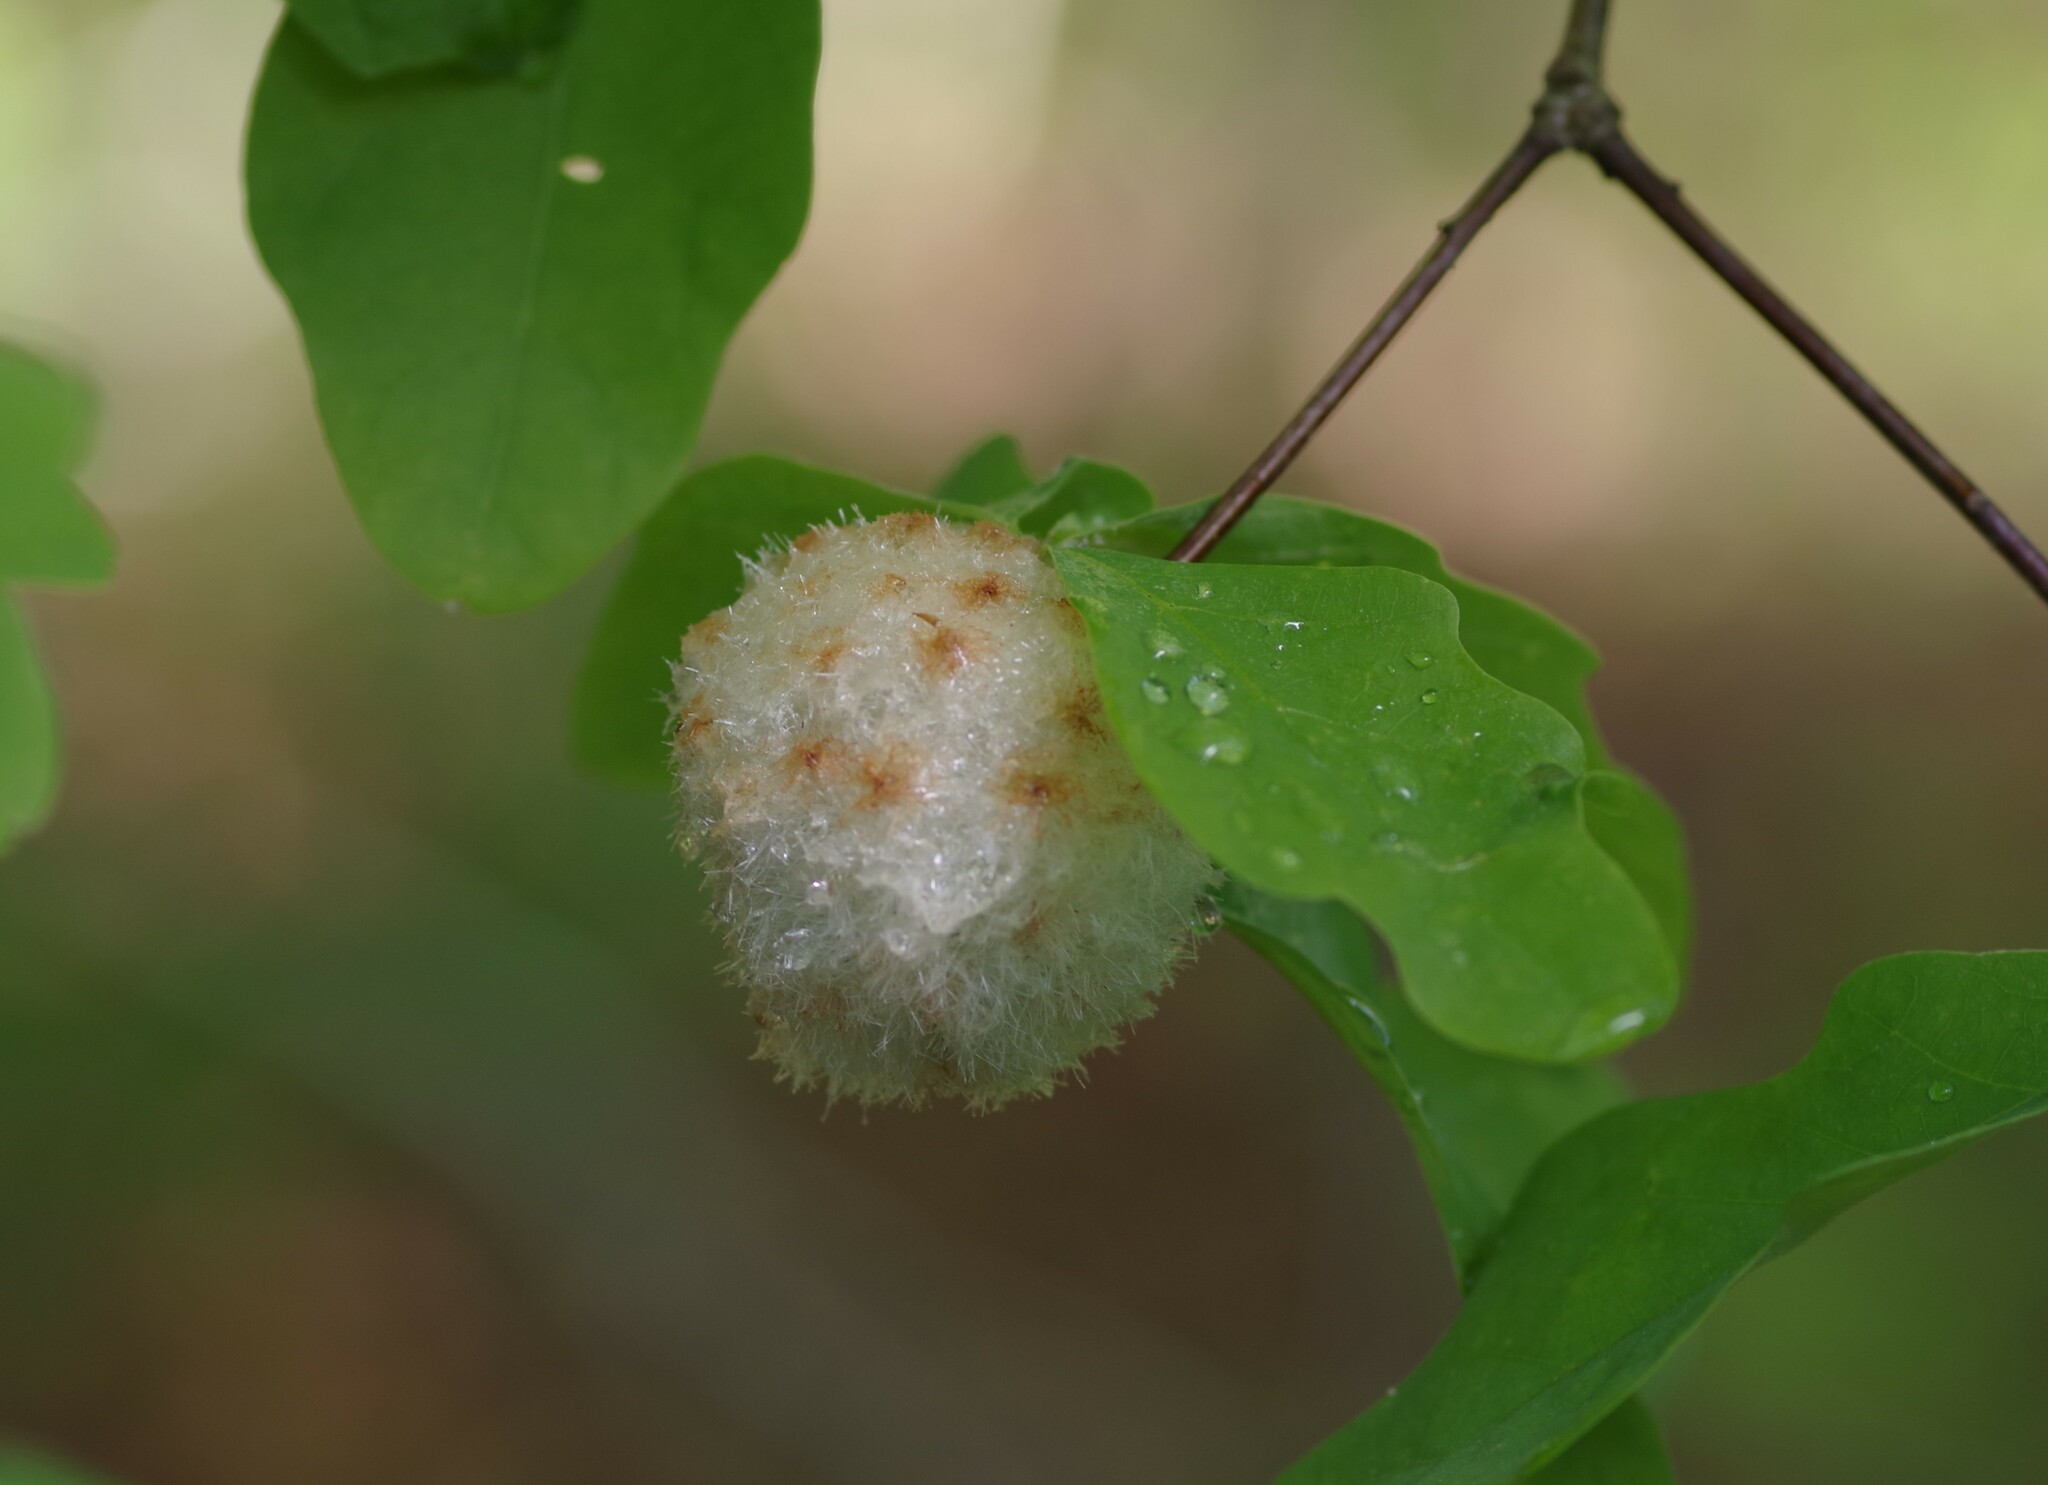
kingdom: Animalia
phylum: Arthropoda
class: Insecta
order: Hymenoptera
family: Cynipidae
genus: Callirhytis
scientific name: Callirhytis
